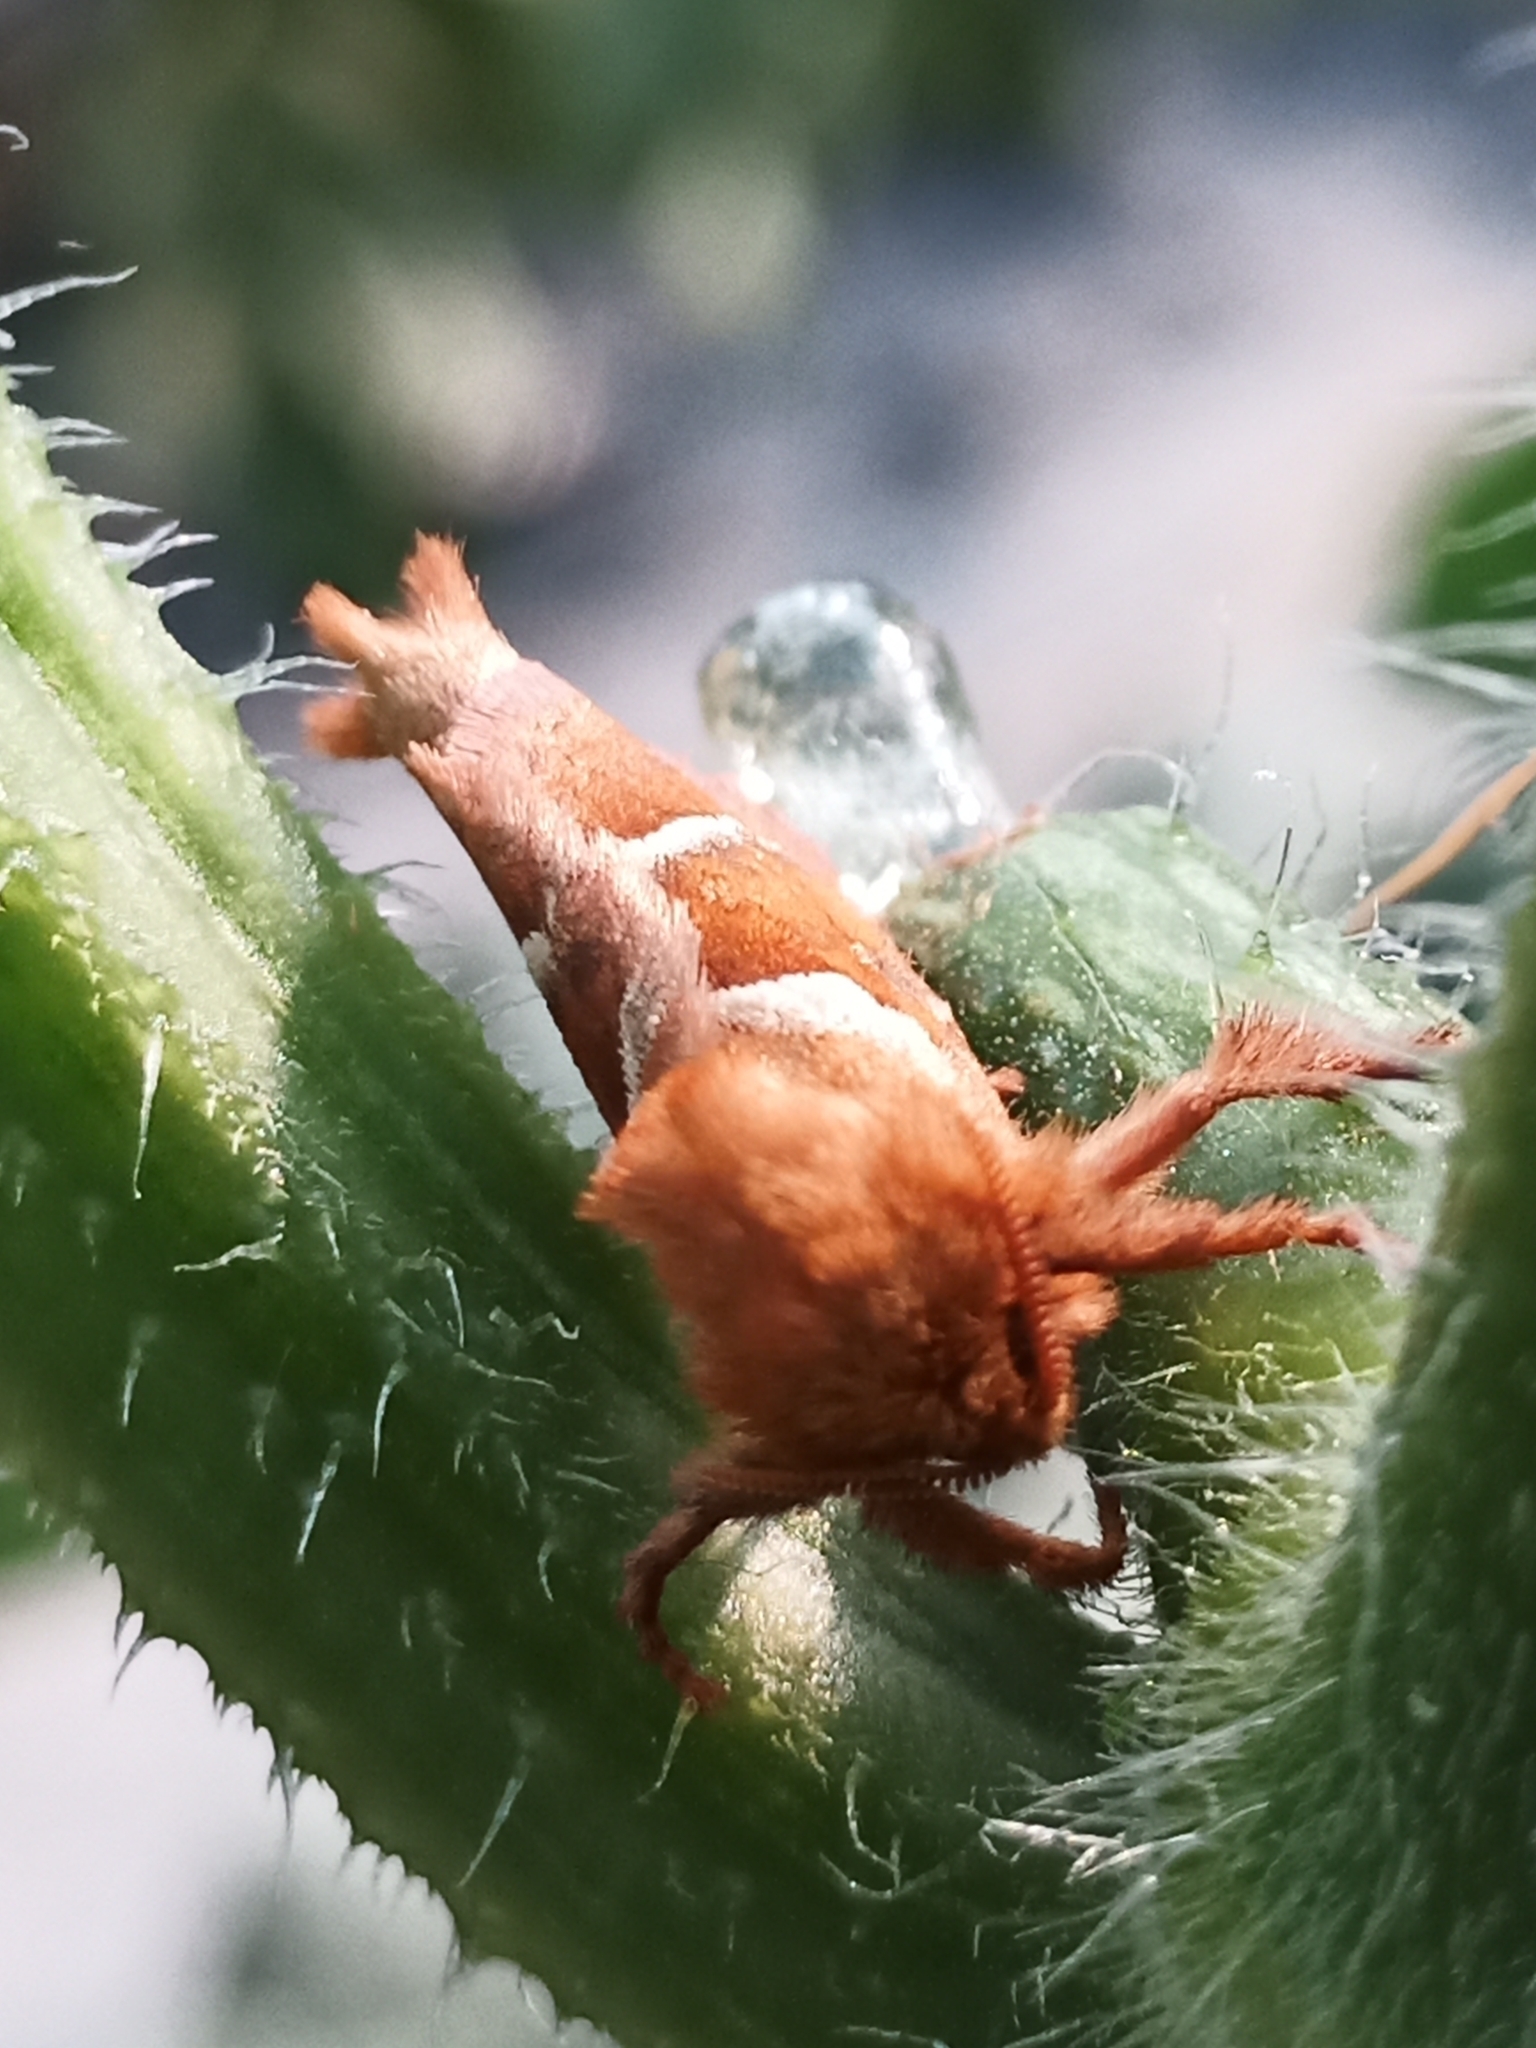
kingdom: Animalia
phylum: Arthropoda
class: Insecta
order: Lepidoptera
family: Hepialidae
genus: Triodia
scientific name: Triodia sylvina
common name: Orange swift
